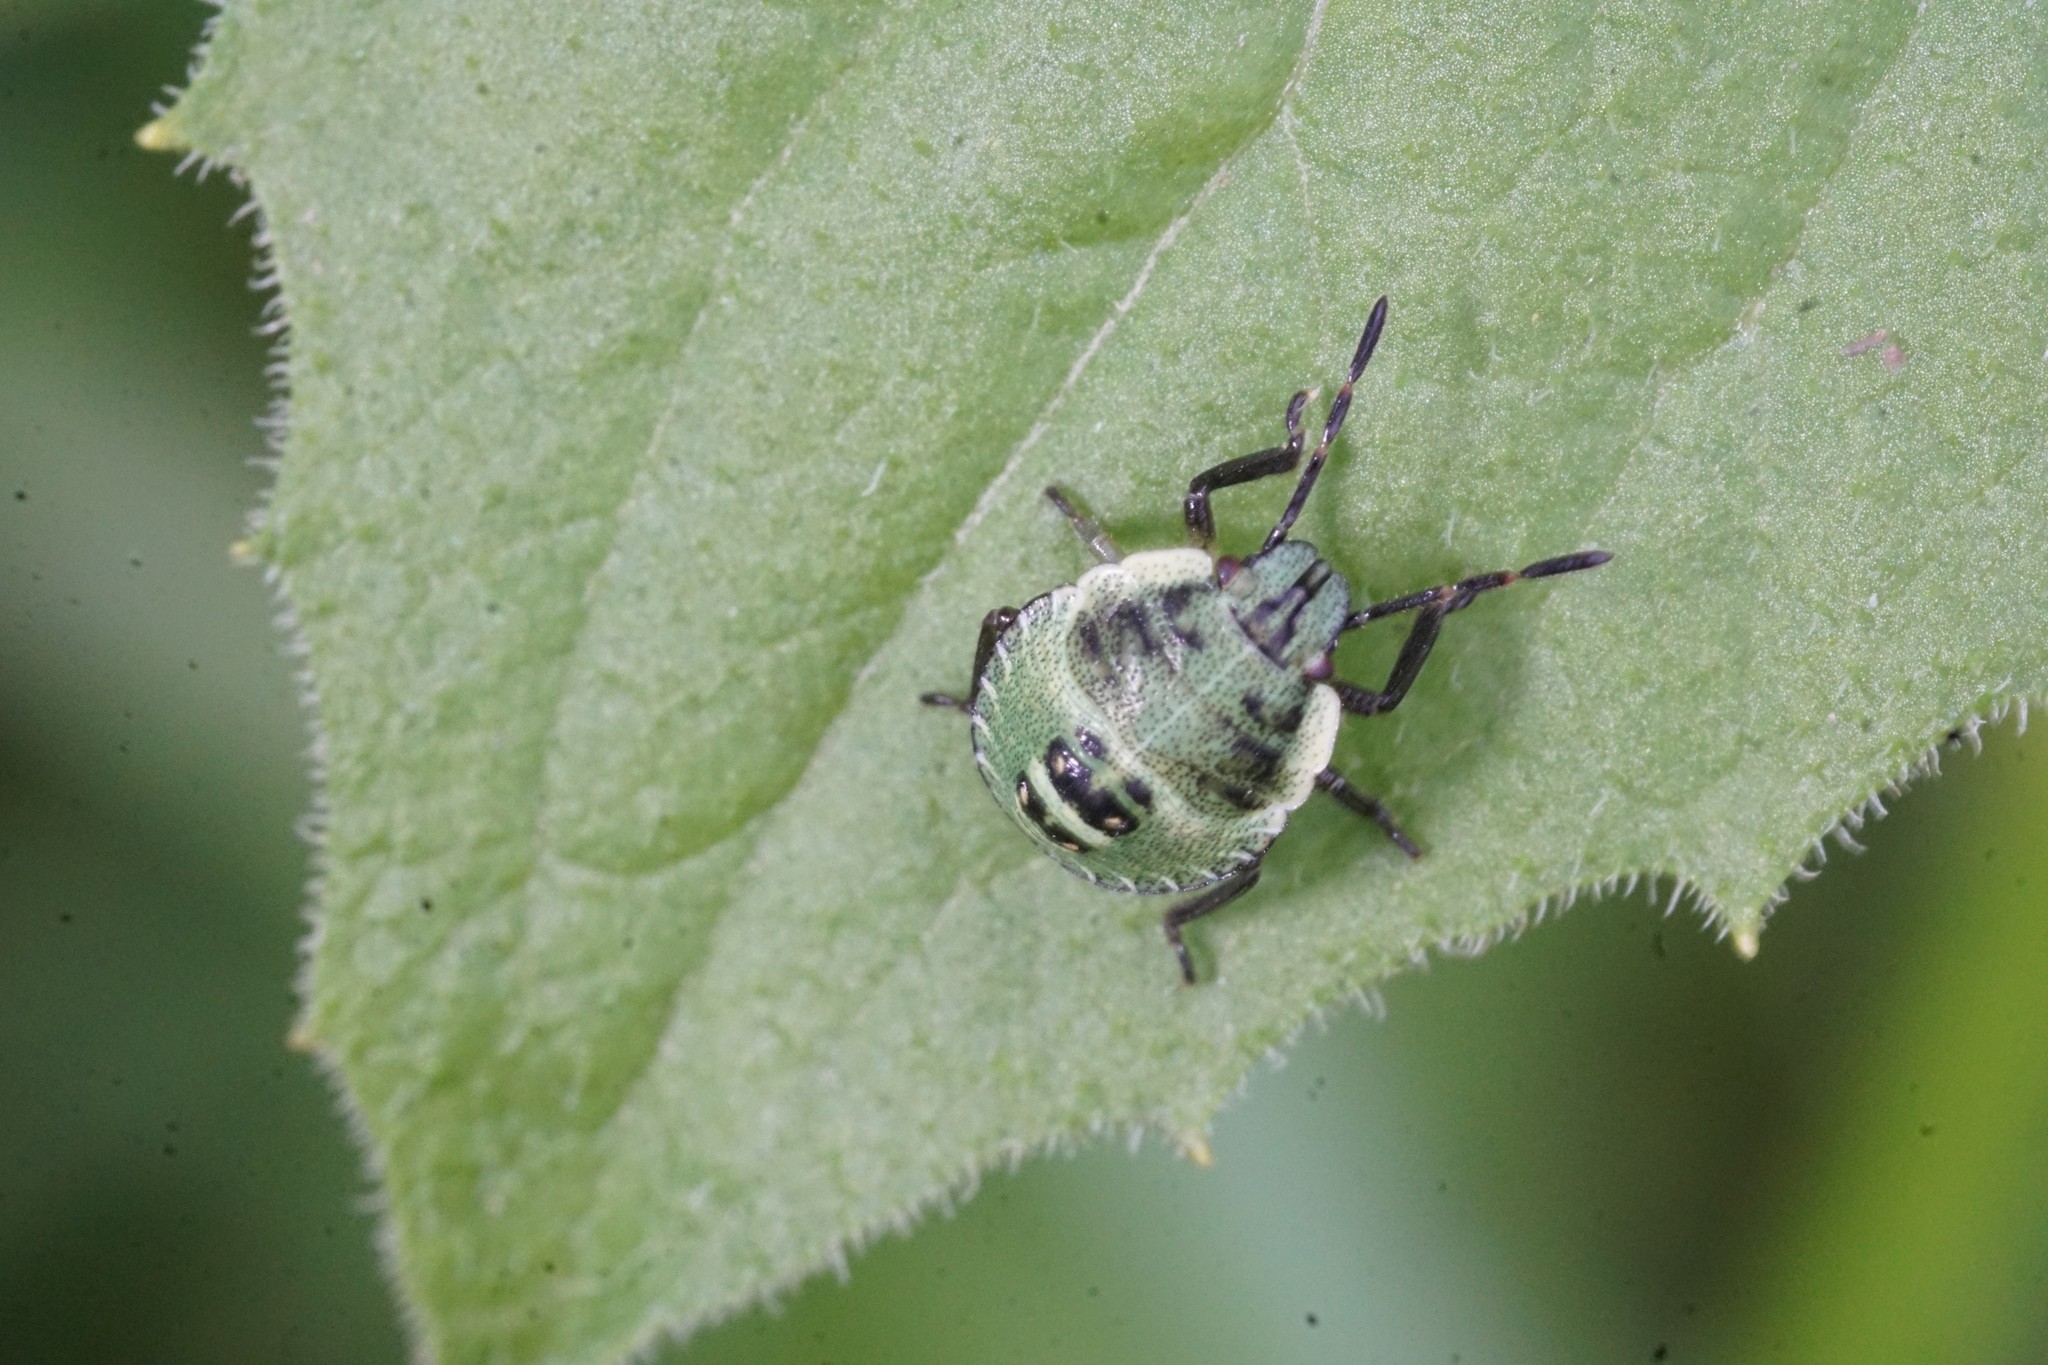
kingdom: Animalia
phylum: Arthropoda
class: Insecta
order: Hemiptera
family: Pentatomidae
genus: Palomena
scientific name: Palomena prasina
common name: Green shieldbug
